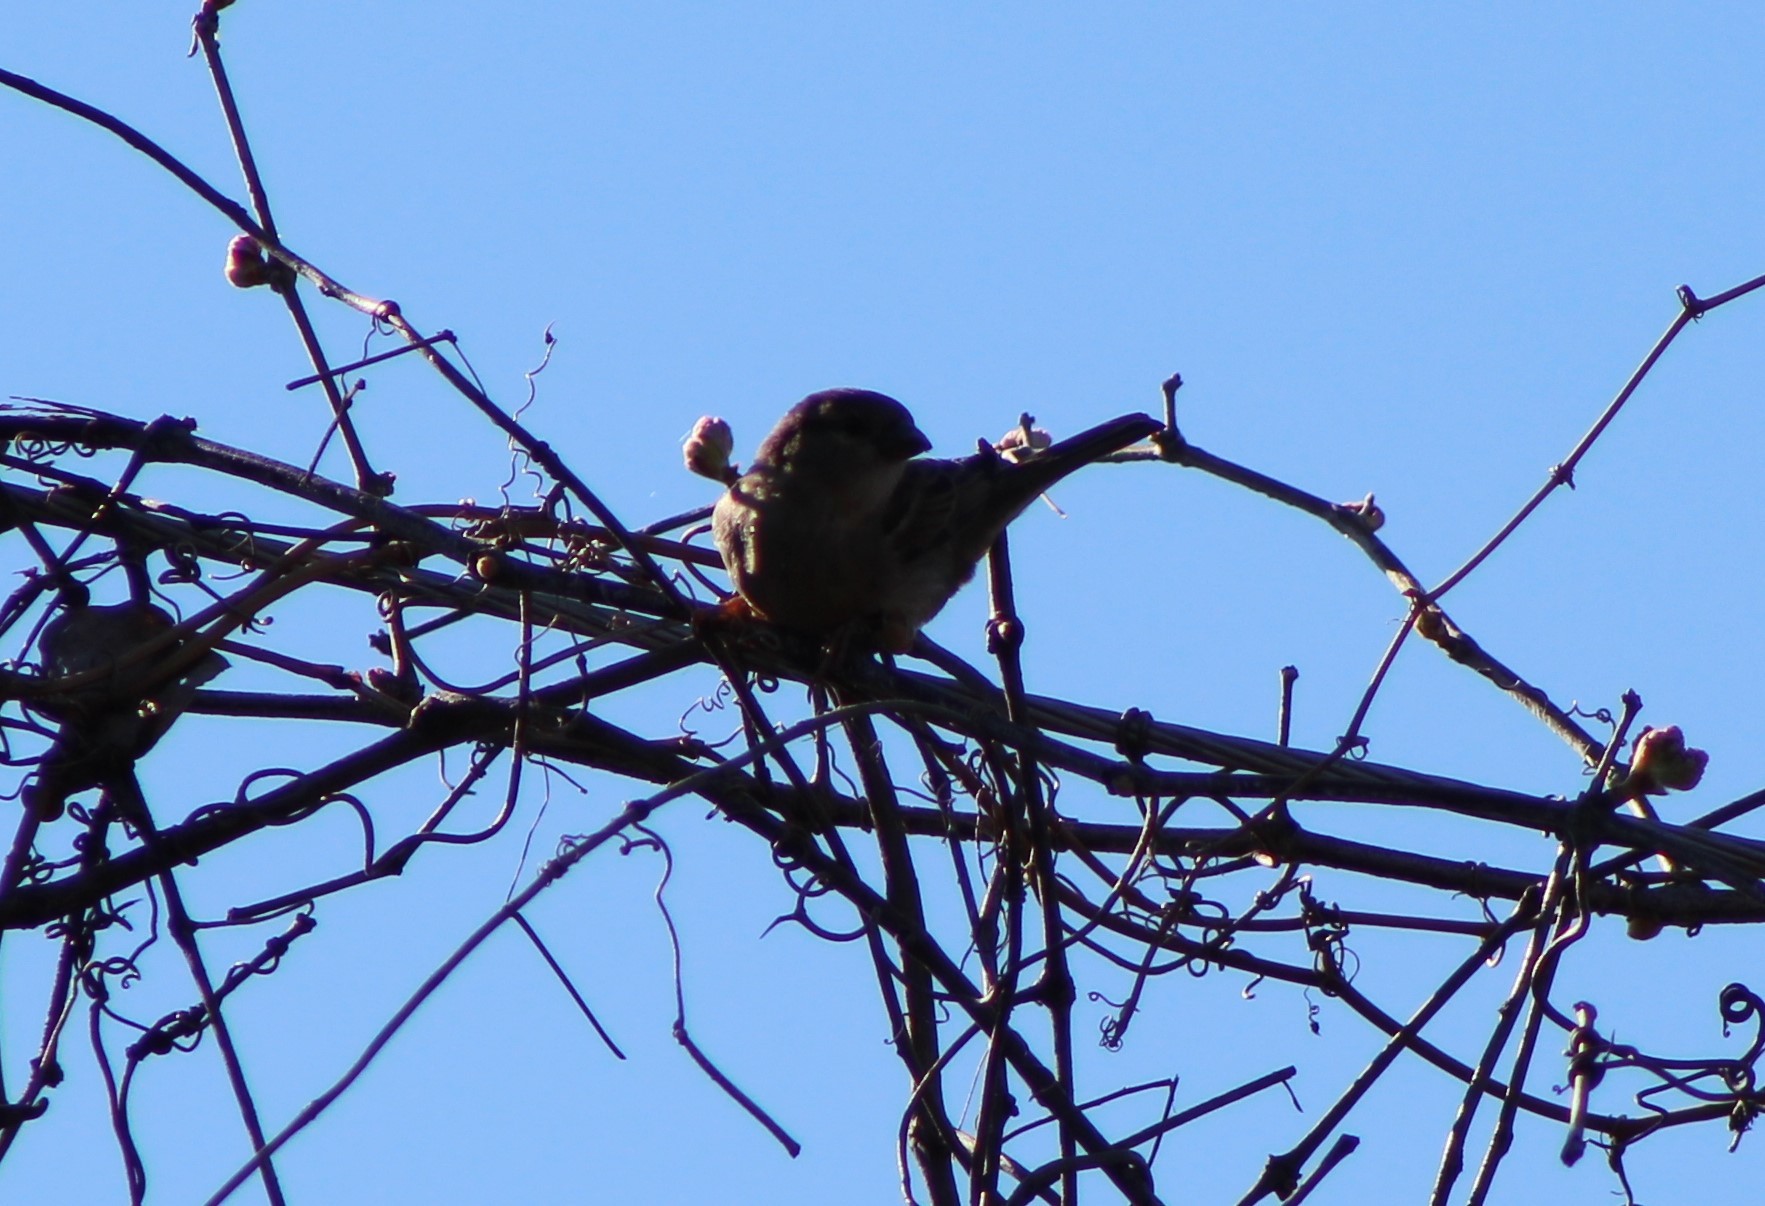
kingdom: Animalia
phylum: Chordata
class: Aves
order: Passeriformes
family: Passeridae
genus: Passer
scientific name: Passer domesticus
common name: House sparrow
